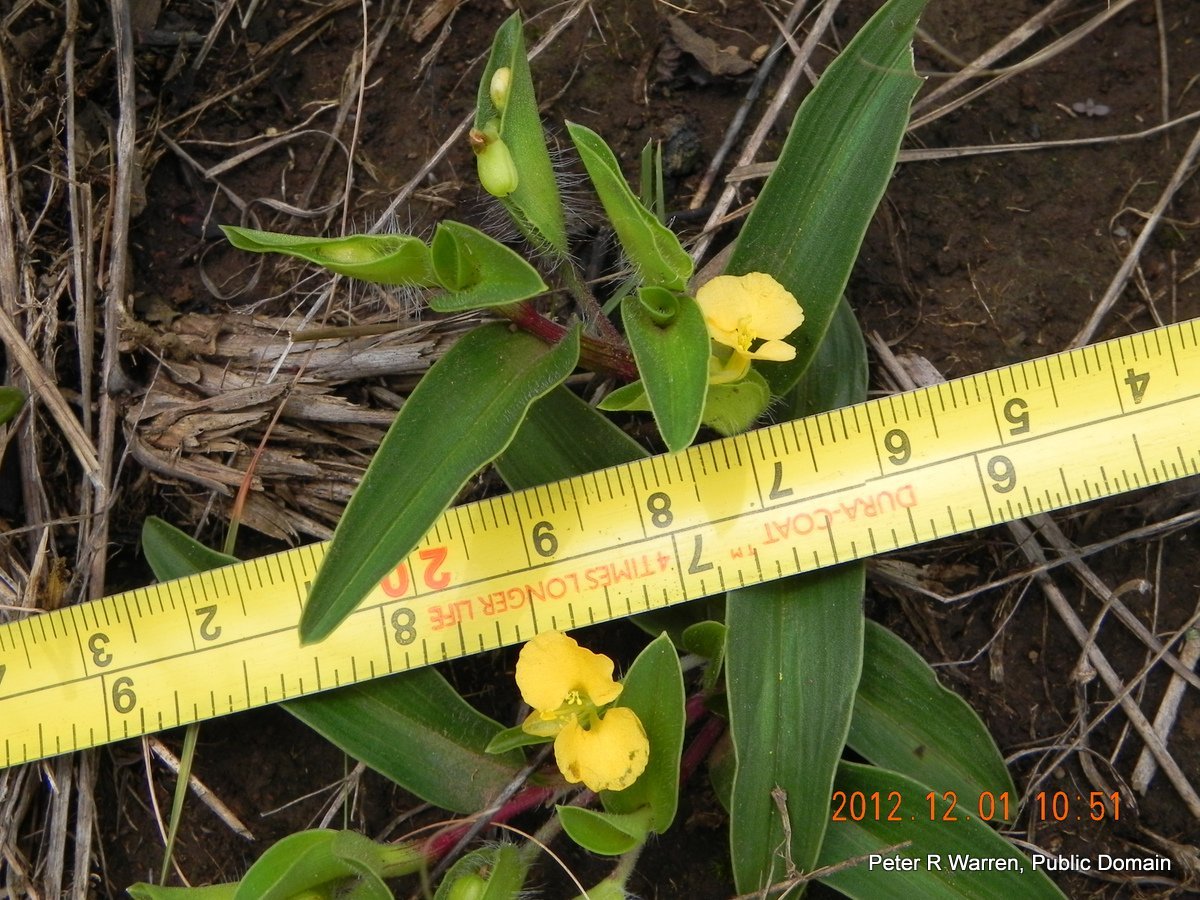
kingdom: Plantae
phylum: Tracheophyta
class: Liliopsida
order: Commelinales
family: Commelinaceae
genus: Commelina
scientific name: Commelina africana
